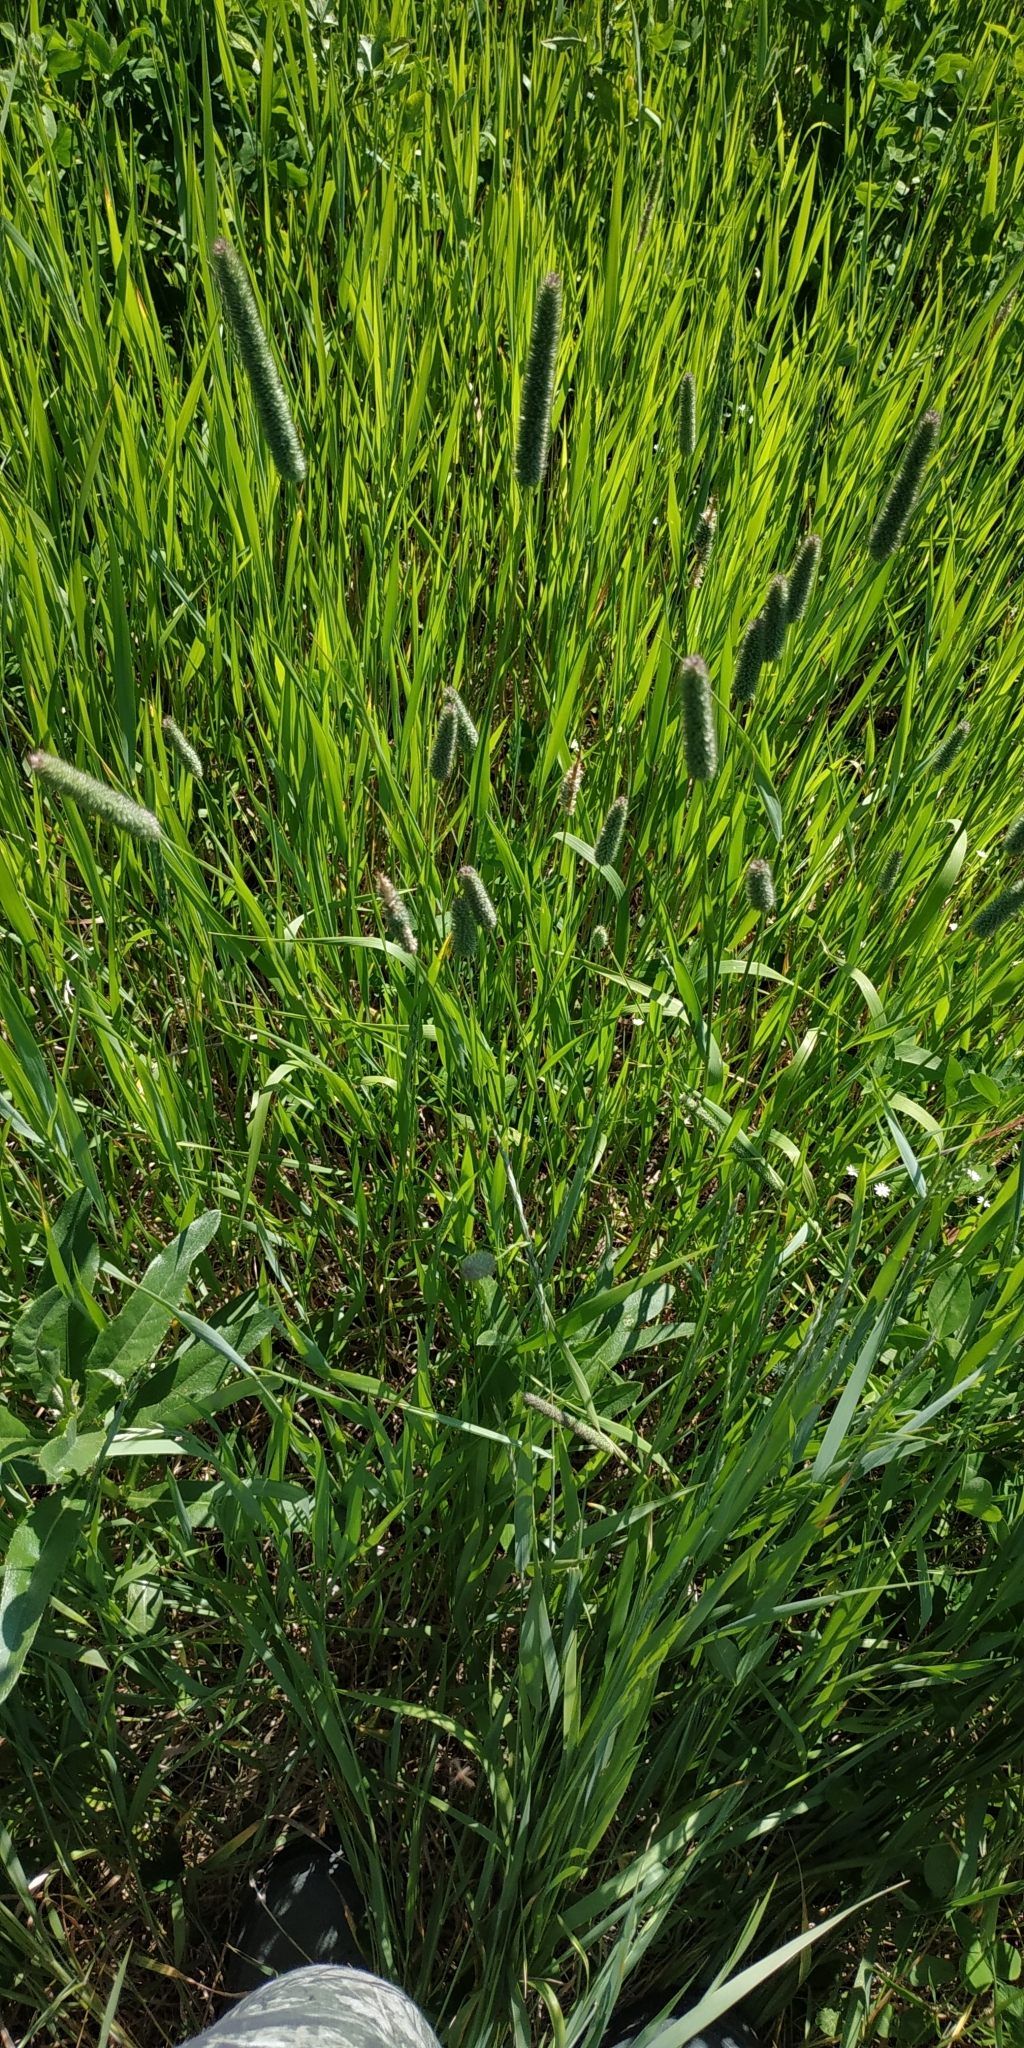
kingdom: Plantae
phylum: Tracheophyta
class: Liliopsida
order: Poales
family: Poaceae
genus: Phleum
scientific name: Phleum pratense
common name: Timothy grass
